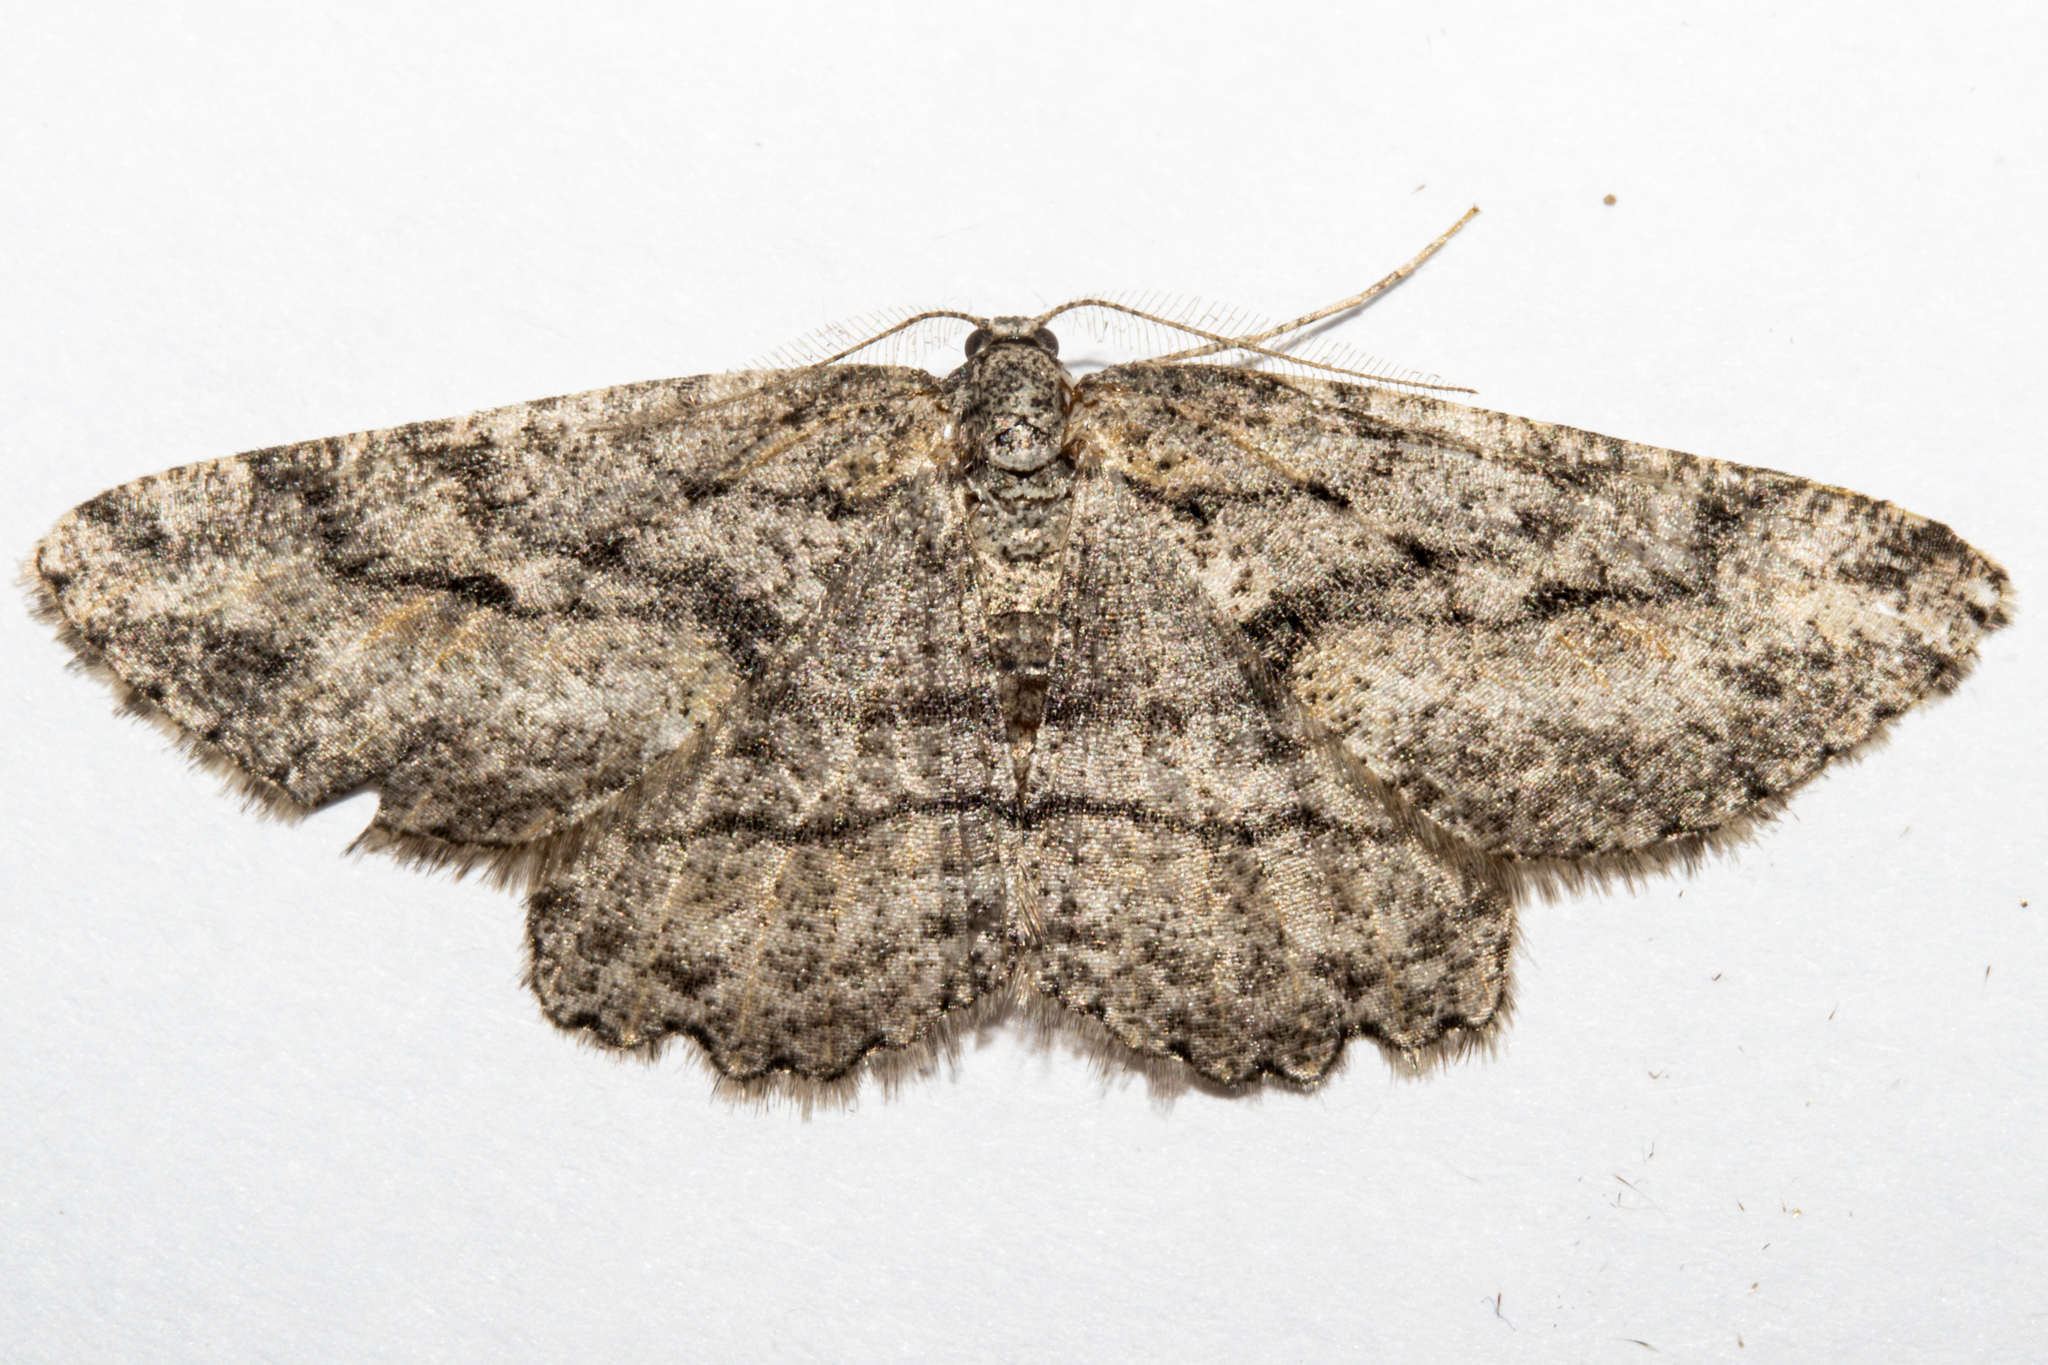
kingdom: Animalia
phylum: Arthropoda
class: Insecta
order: Lepidoptera
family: Geometridae
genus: Zermizinga
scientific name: Zermizinga indocilisaria
